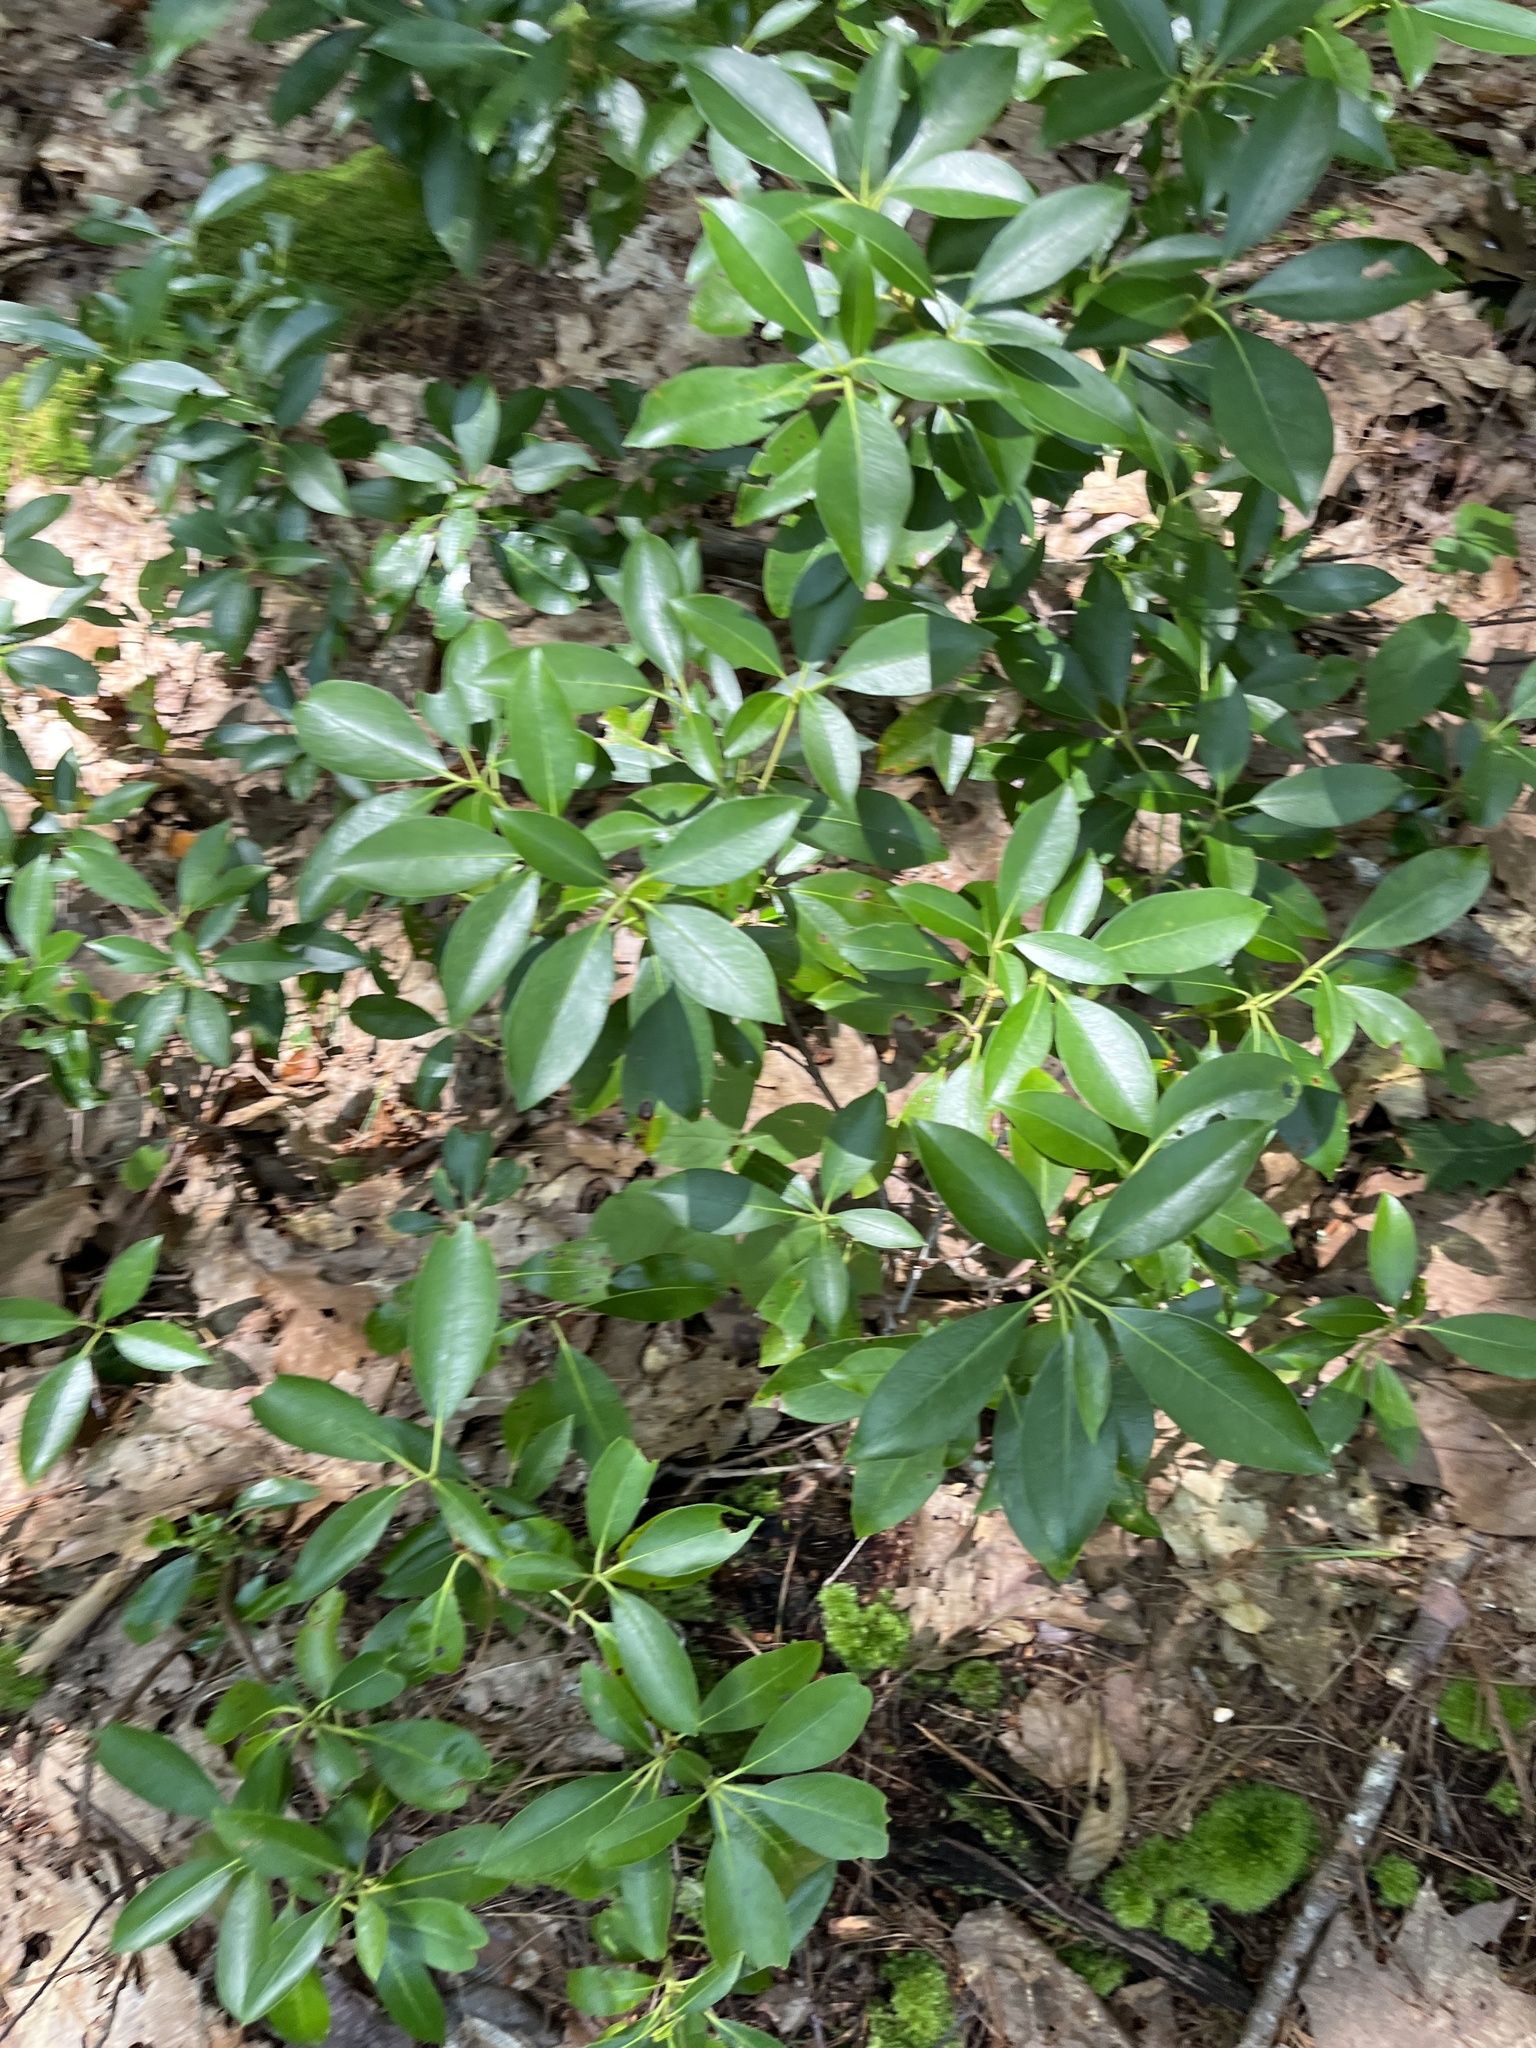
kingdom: Plantae
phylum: Tracheophyta
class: Magnoliopsida
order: Ericales
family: Ericaceae
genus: Kalmia
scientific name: Kalmia latifolia
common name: Mountain-laurel
